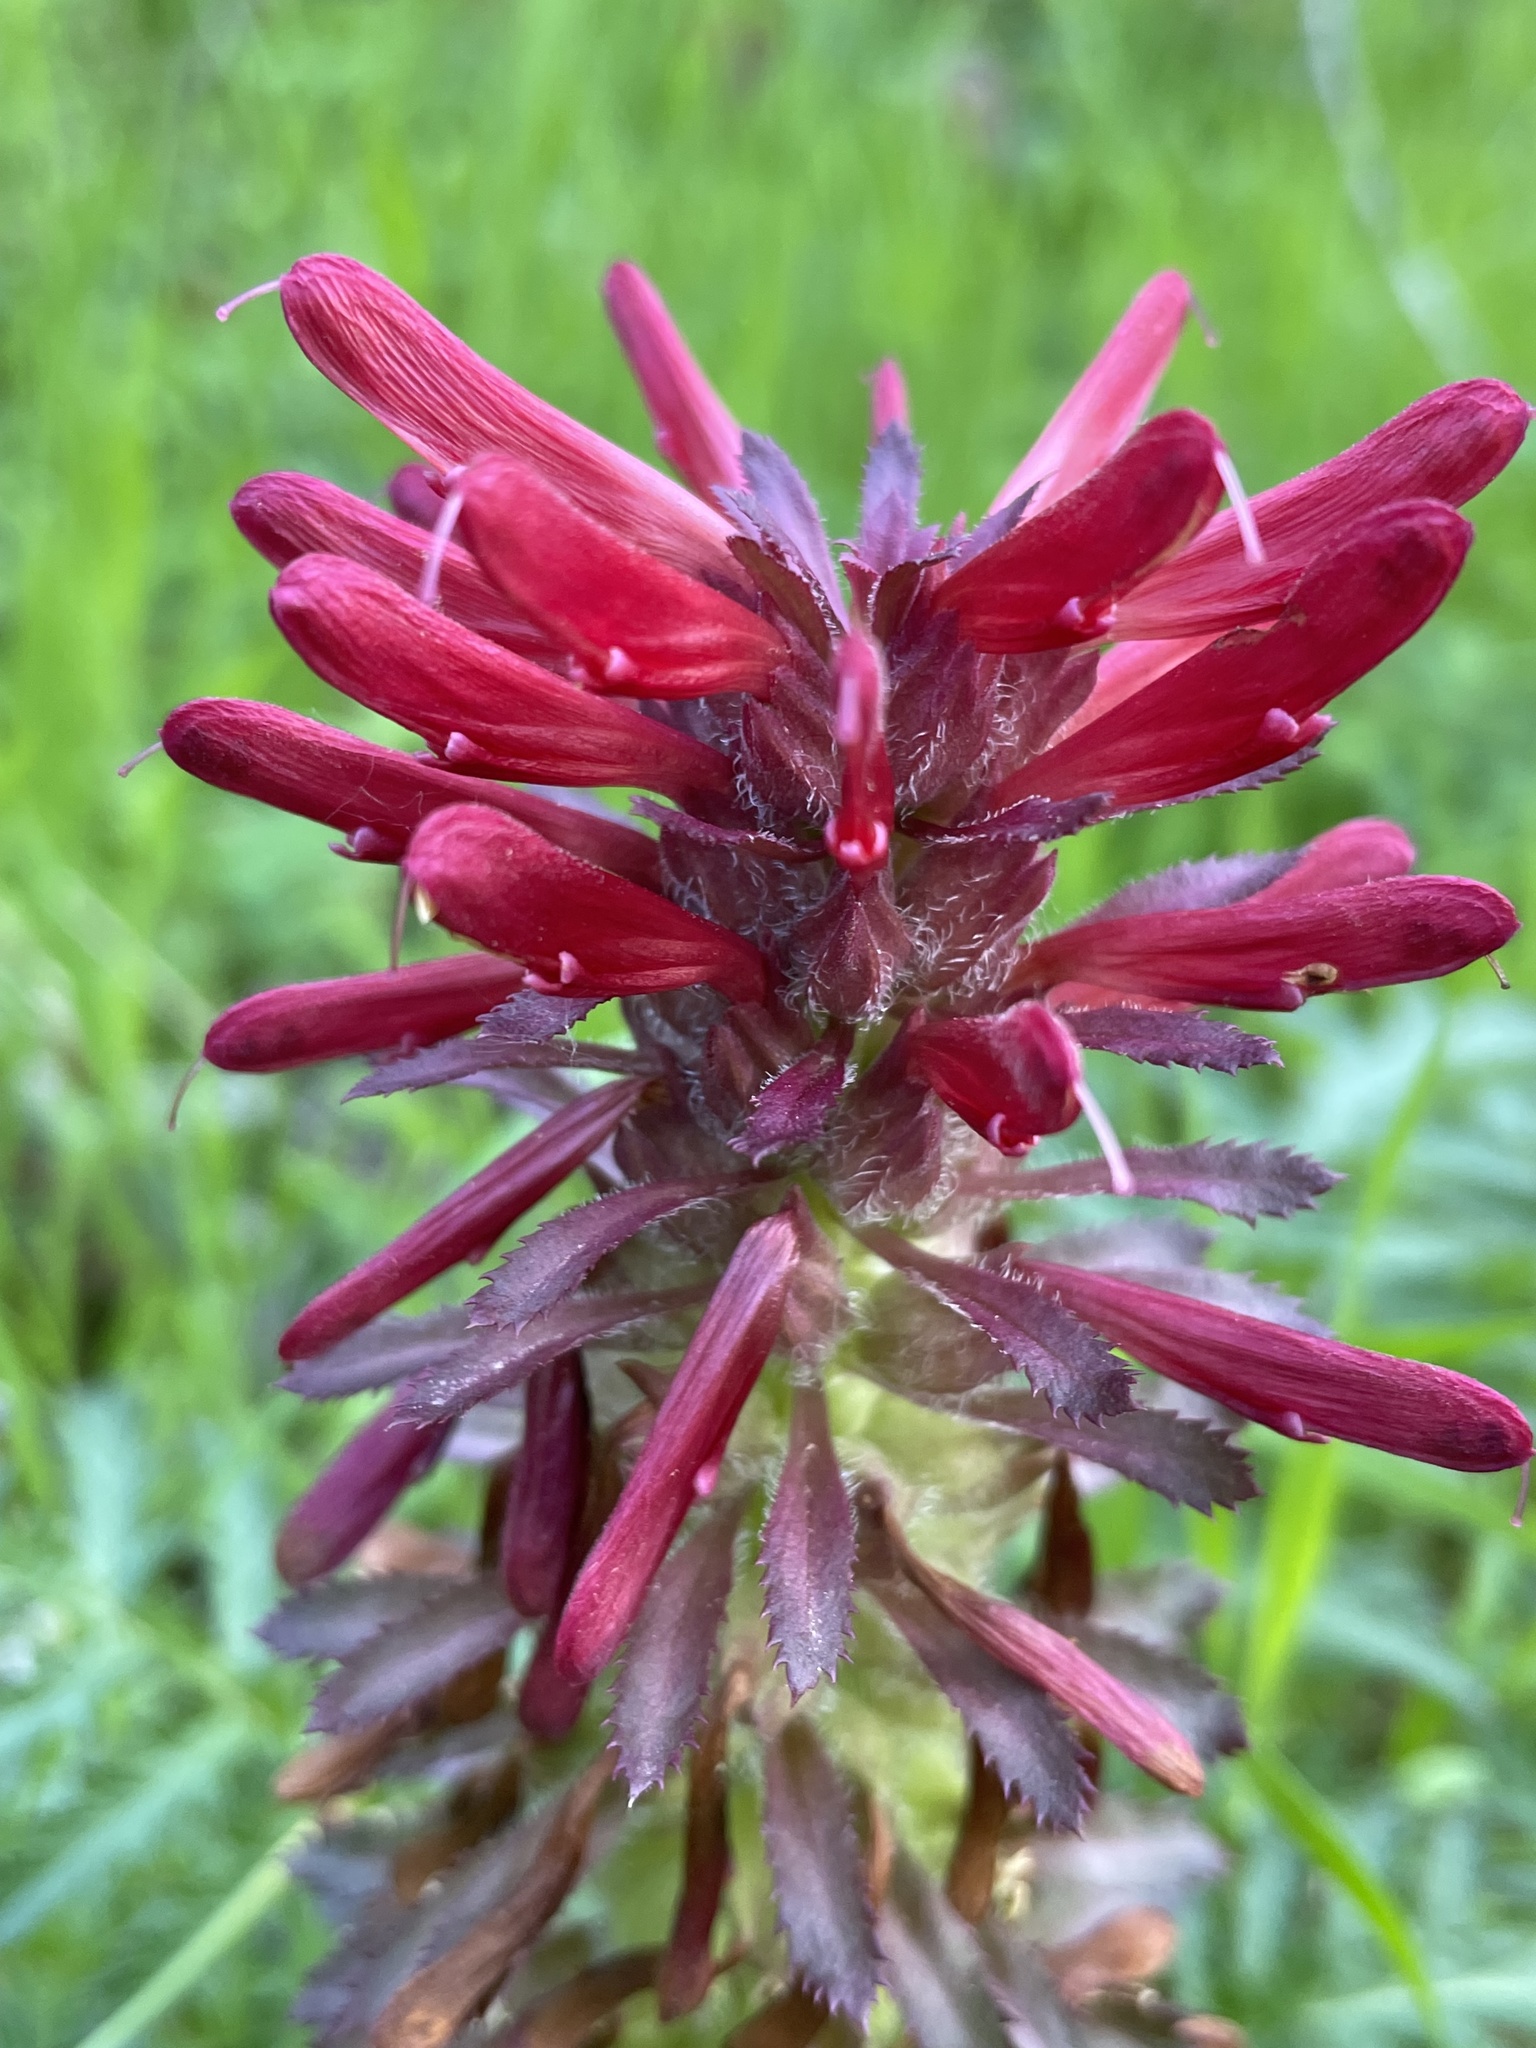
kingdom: Plantae
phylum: Tracheophyta
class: Magnoliopsida
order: Lamiales
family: Orobanchaceae
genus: Pedicularis
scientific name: Pedicularis densiflora
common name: Indian warrior
